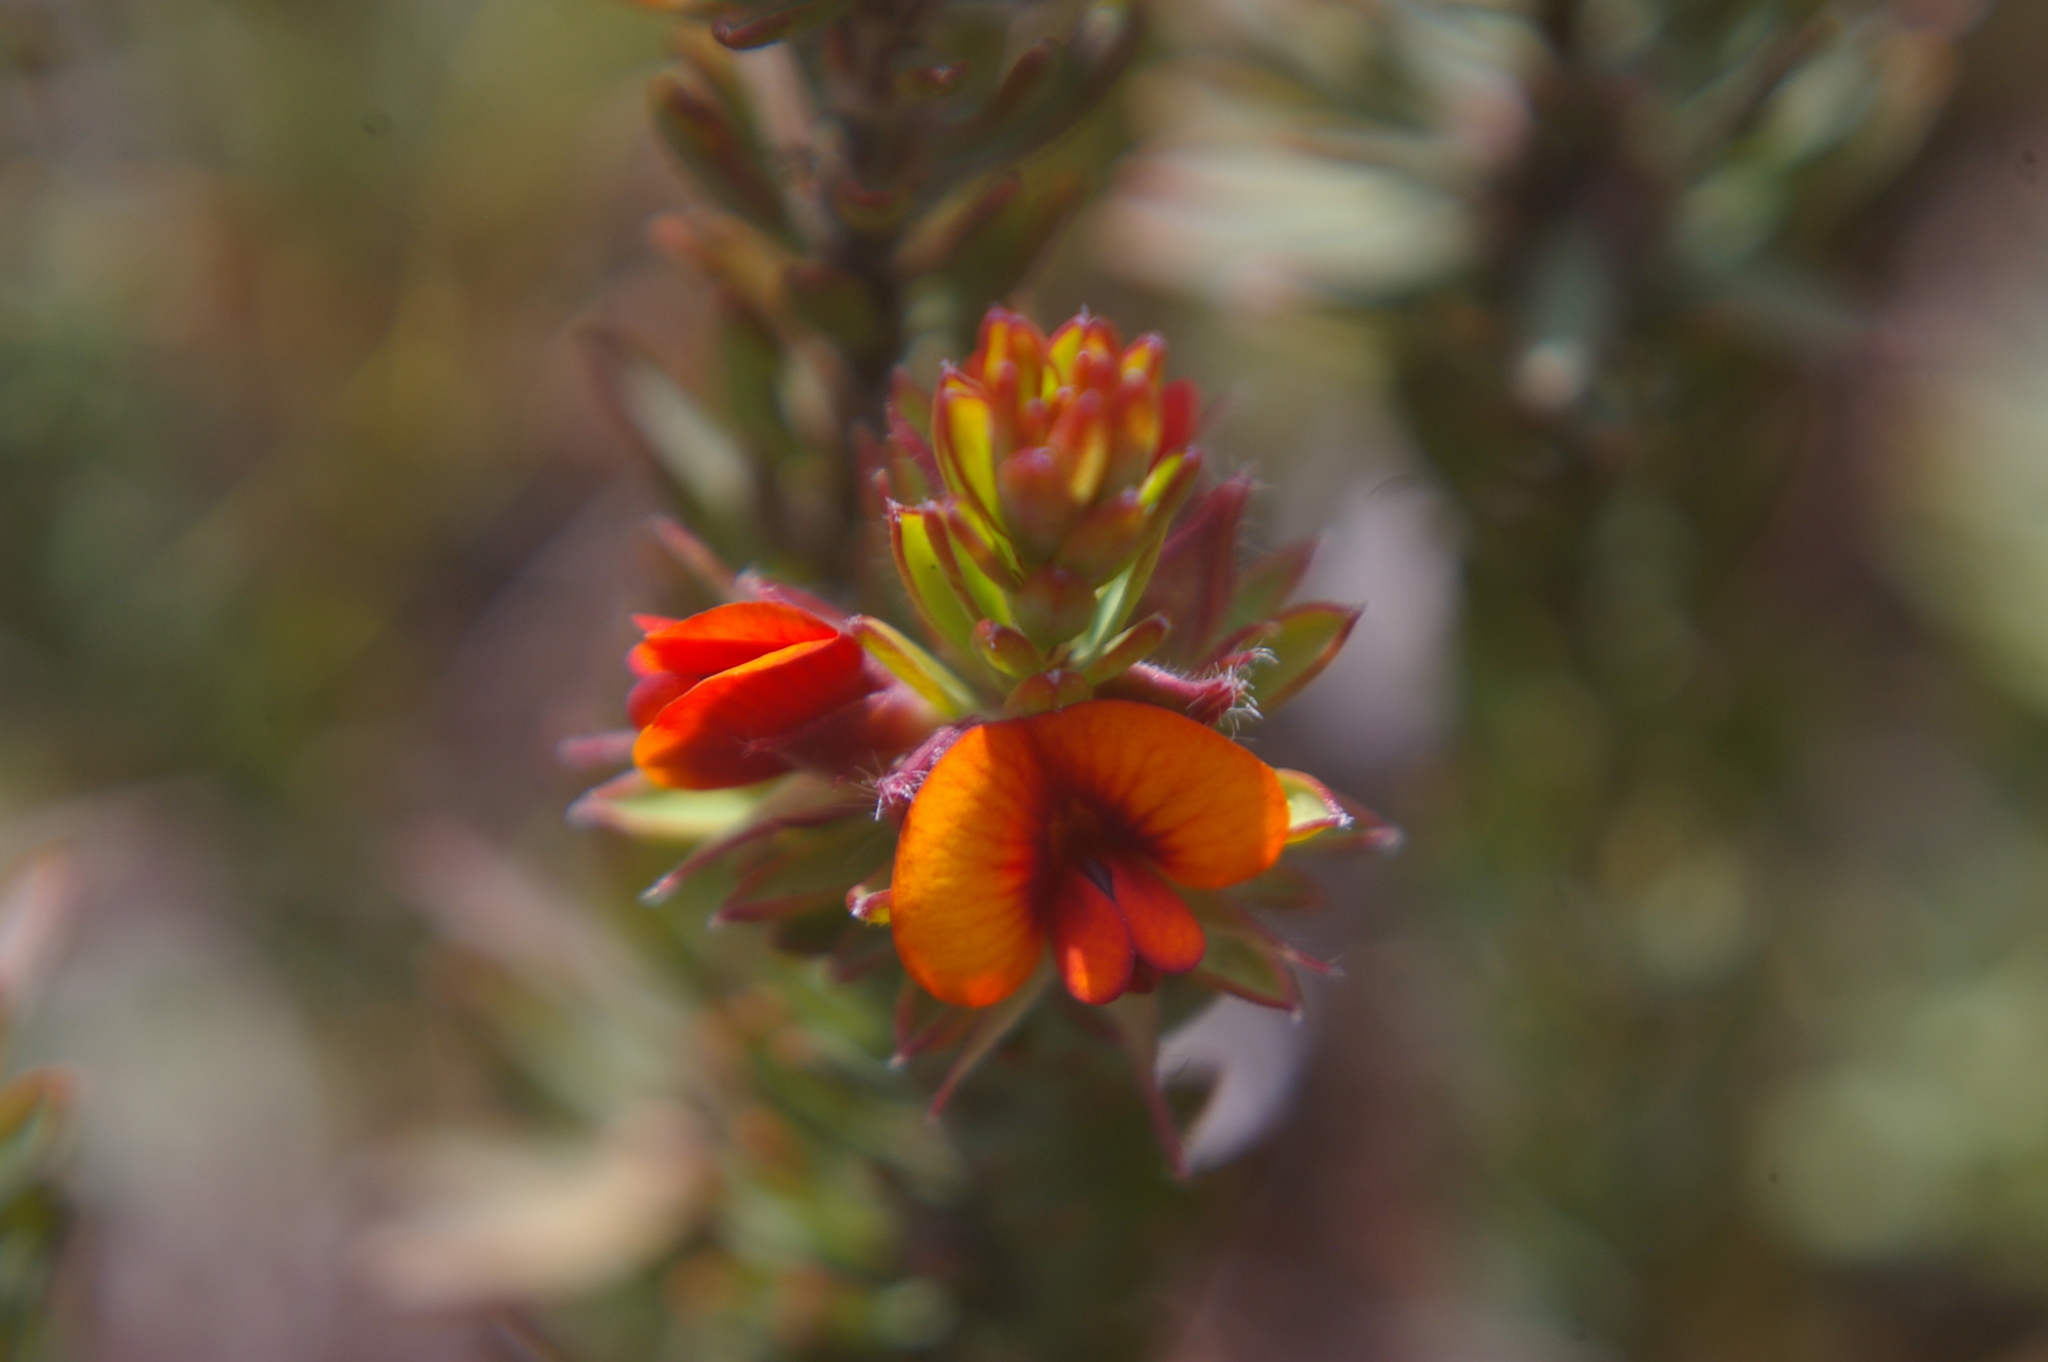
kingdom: Plantae
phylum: Tracheophyta
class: Magnoliopsida
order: Fabales
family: Fabaceae
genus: Pultenaea
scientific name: Pultenaea humilis
